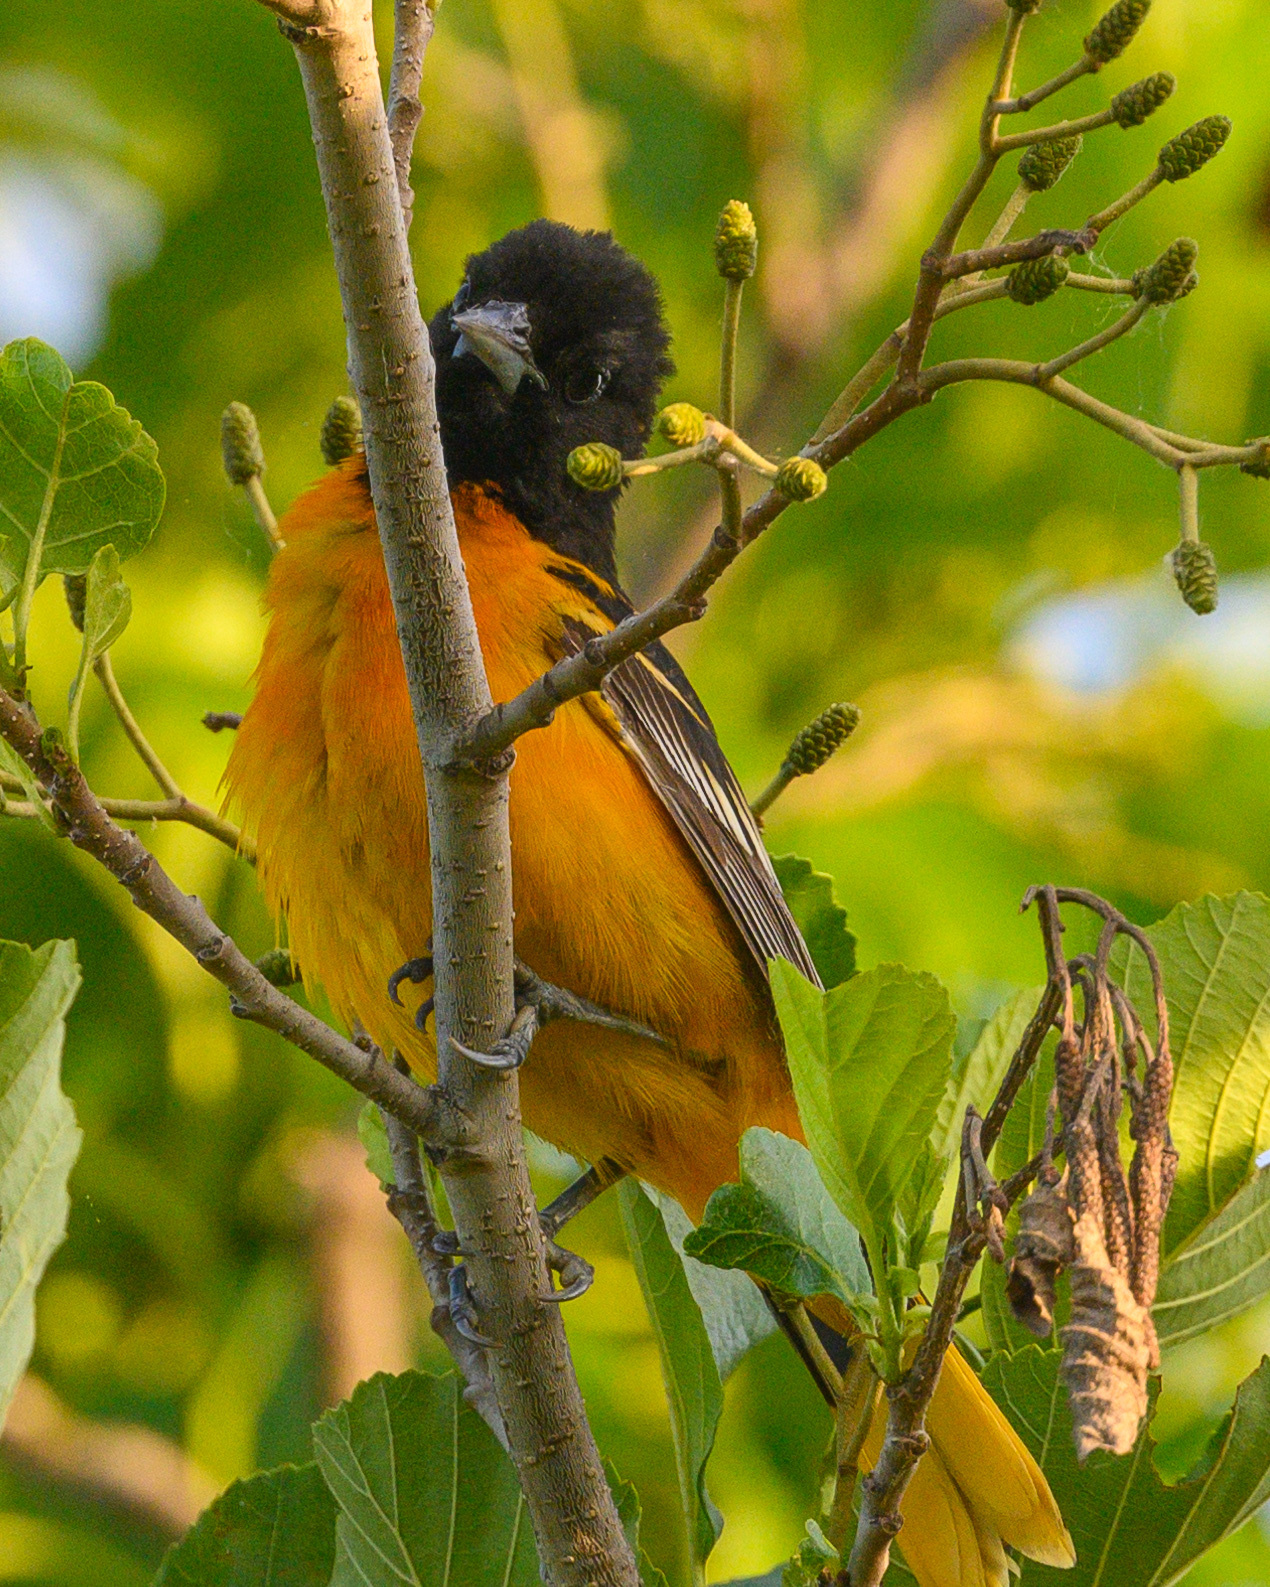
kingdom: Animalia
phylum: Chordata
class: Aves
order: Passeriformes
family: Icteridae
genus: Icterus
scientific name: Icterus galbula
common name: Baltimore oriole
